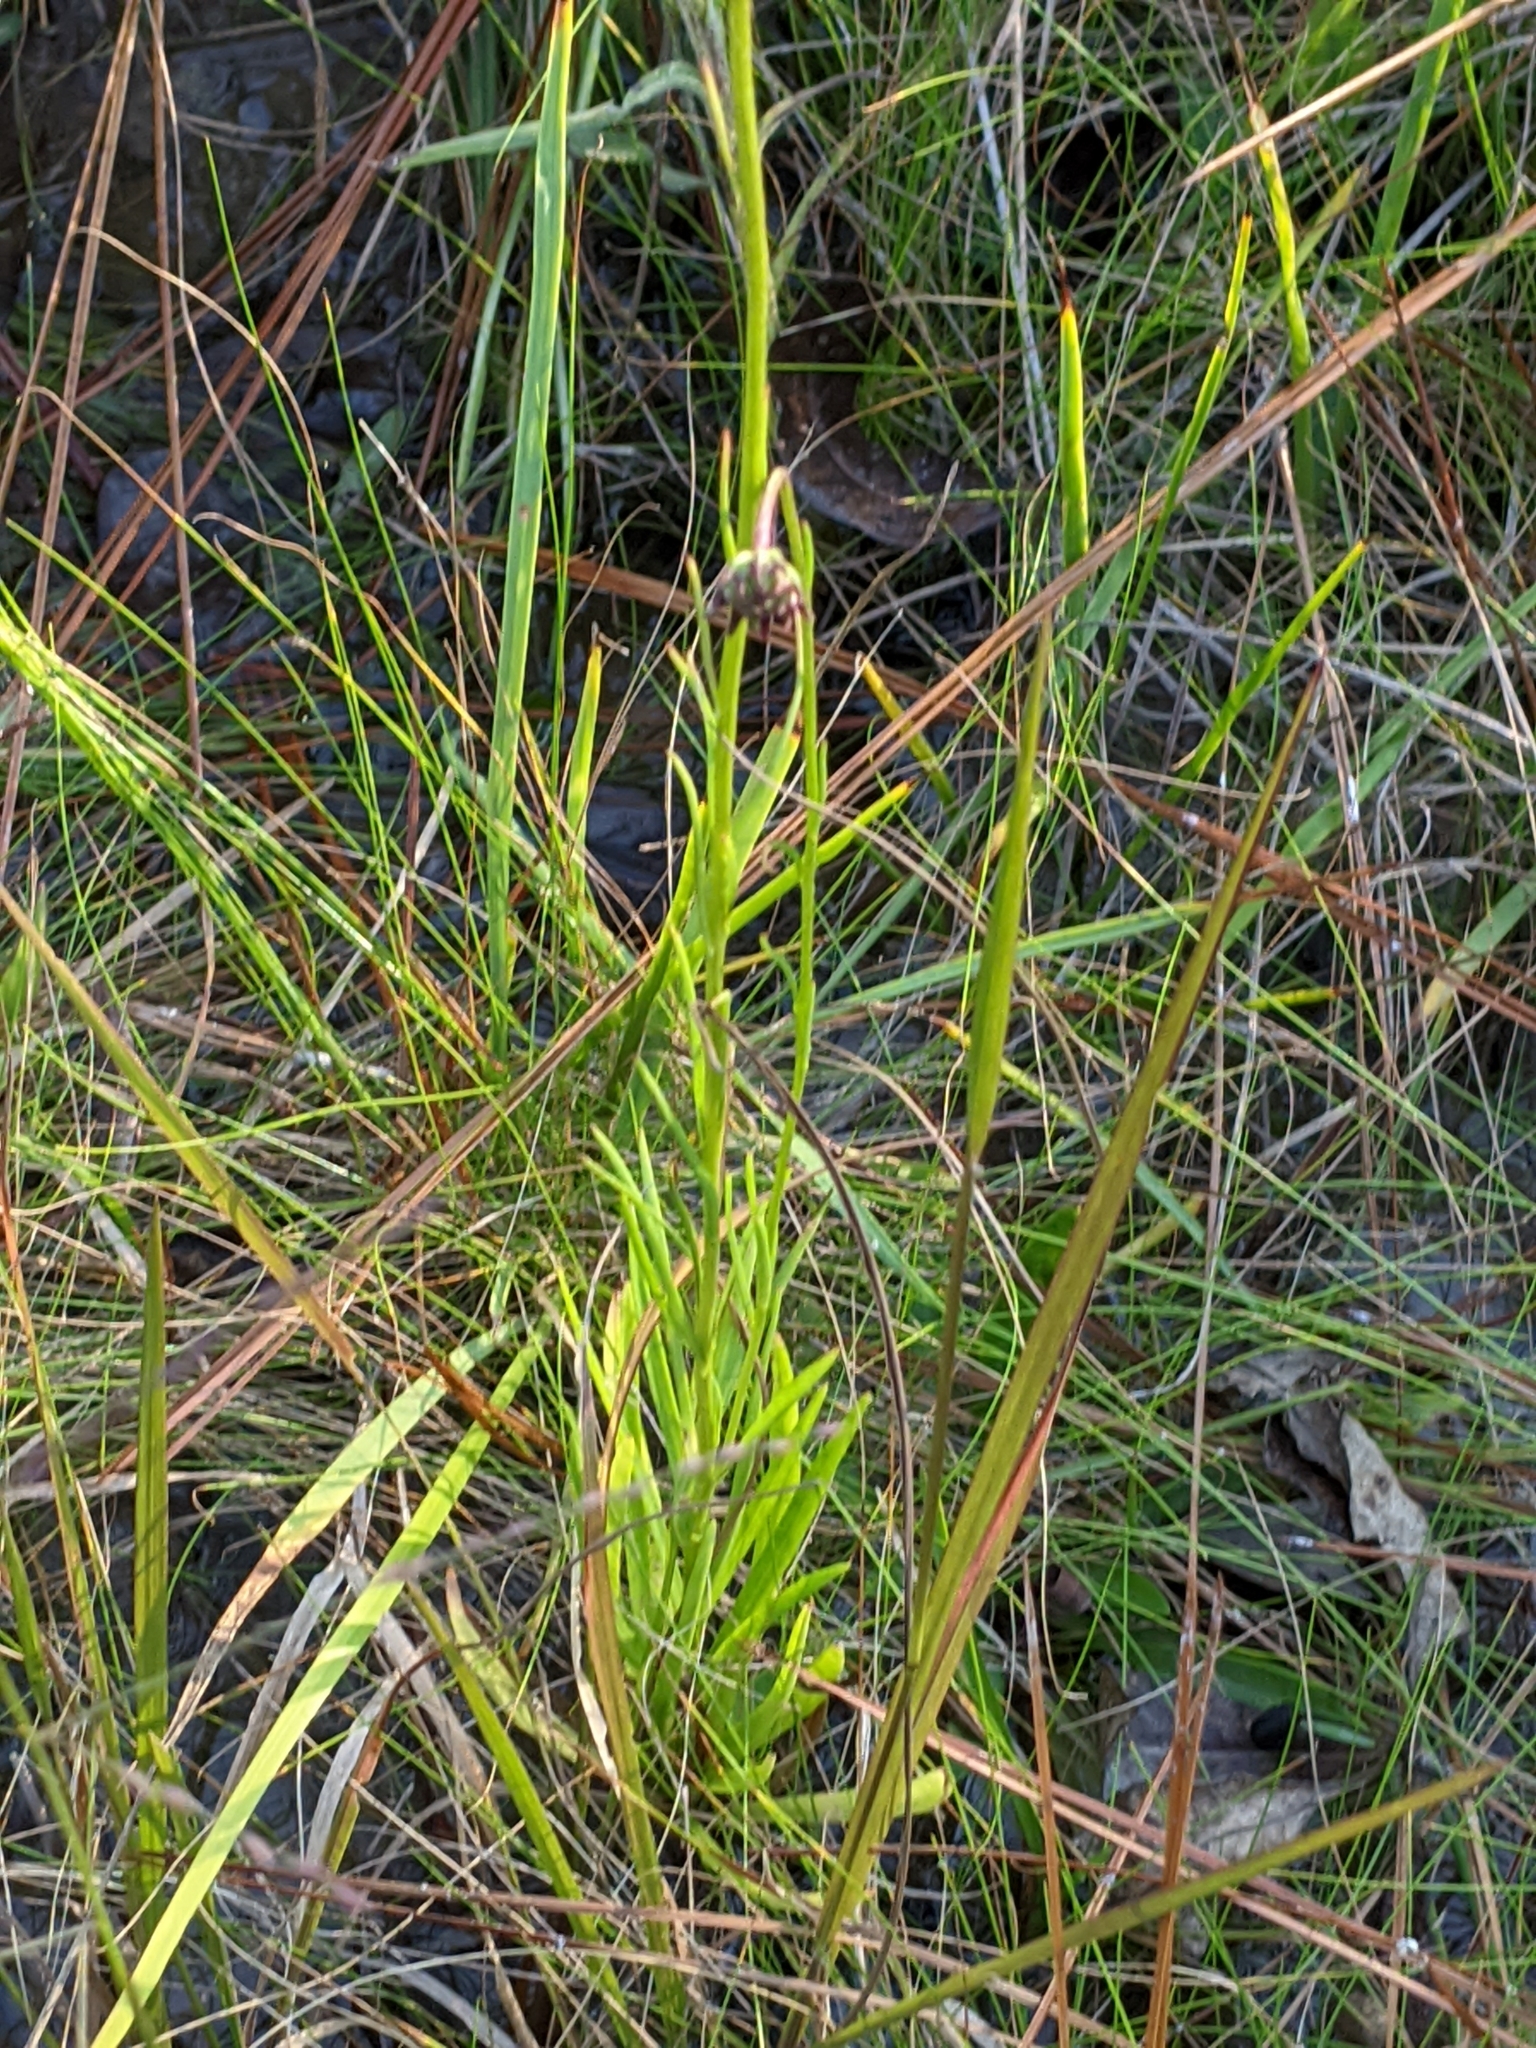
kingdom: Plantae
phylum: Tracheophyta
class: Magnoliopsida
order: Asterales
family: Asteraceae
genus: Marshallia
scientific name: Marshallia graminifolia
